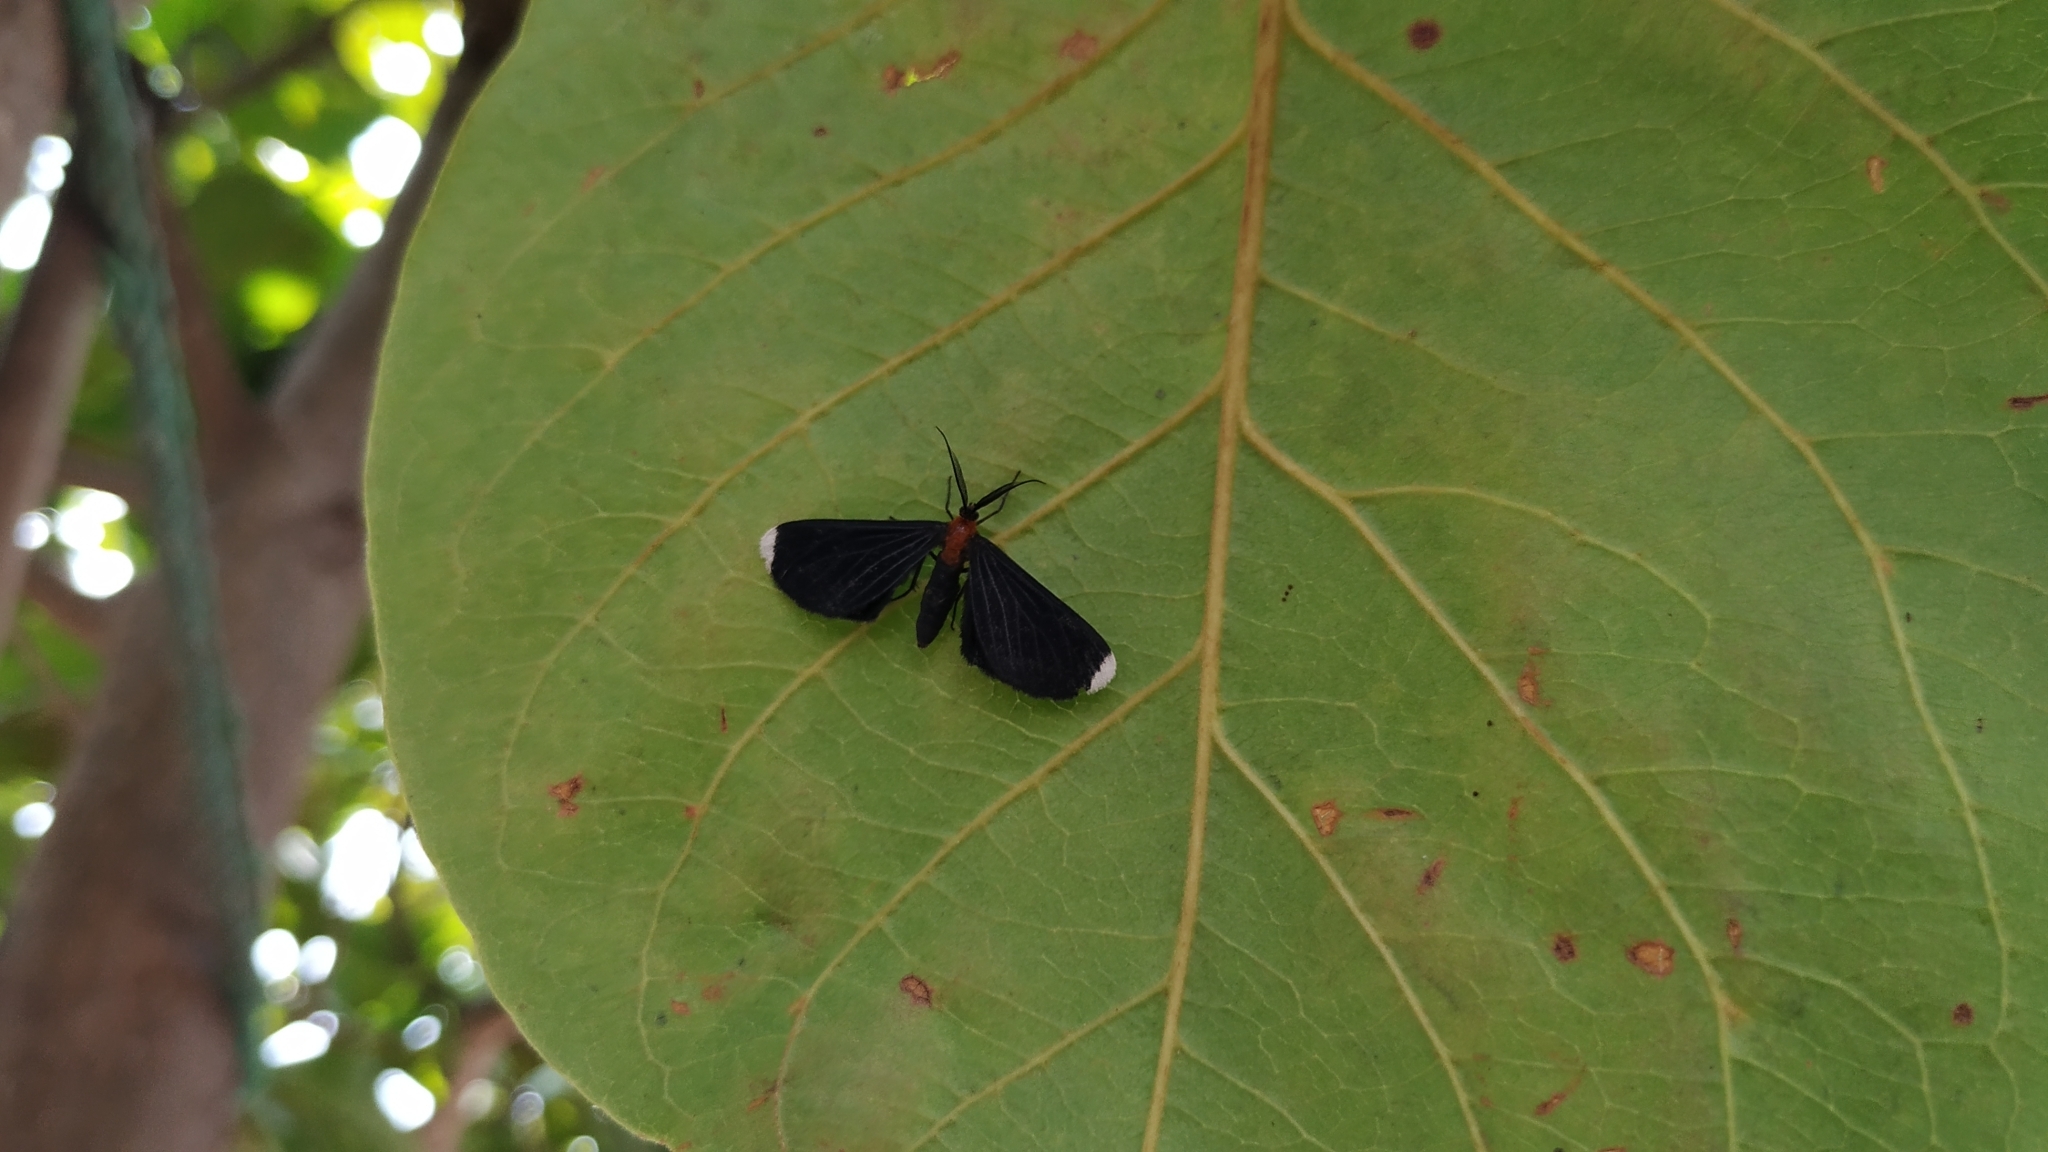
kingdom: Animalia
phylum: Arthropoda
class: Insecta
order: Lepidoptera
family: Geometridae
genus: Melanchroia
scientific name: Melanchroia chephise
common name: White-tipped black
